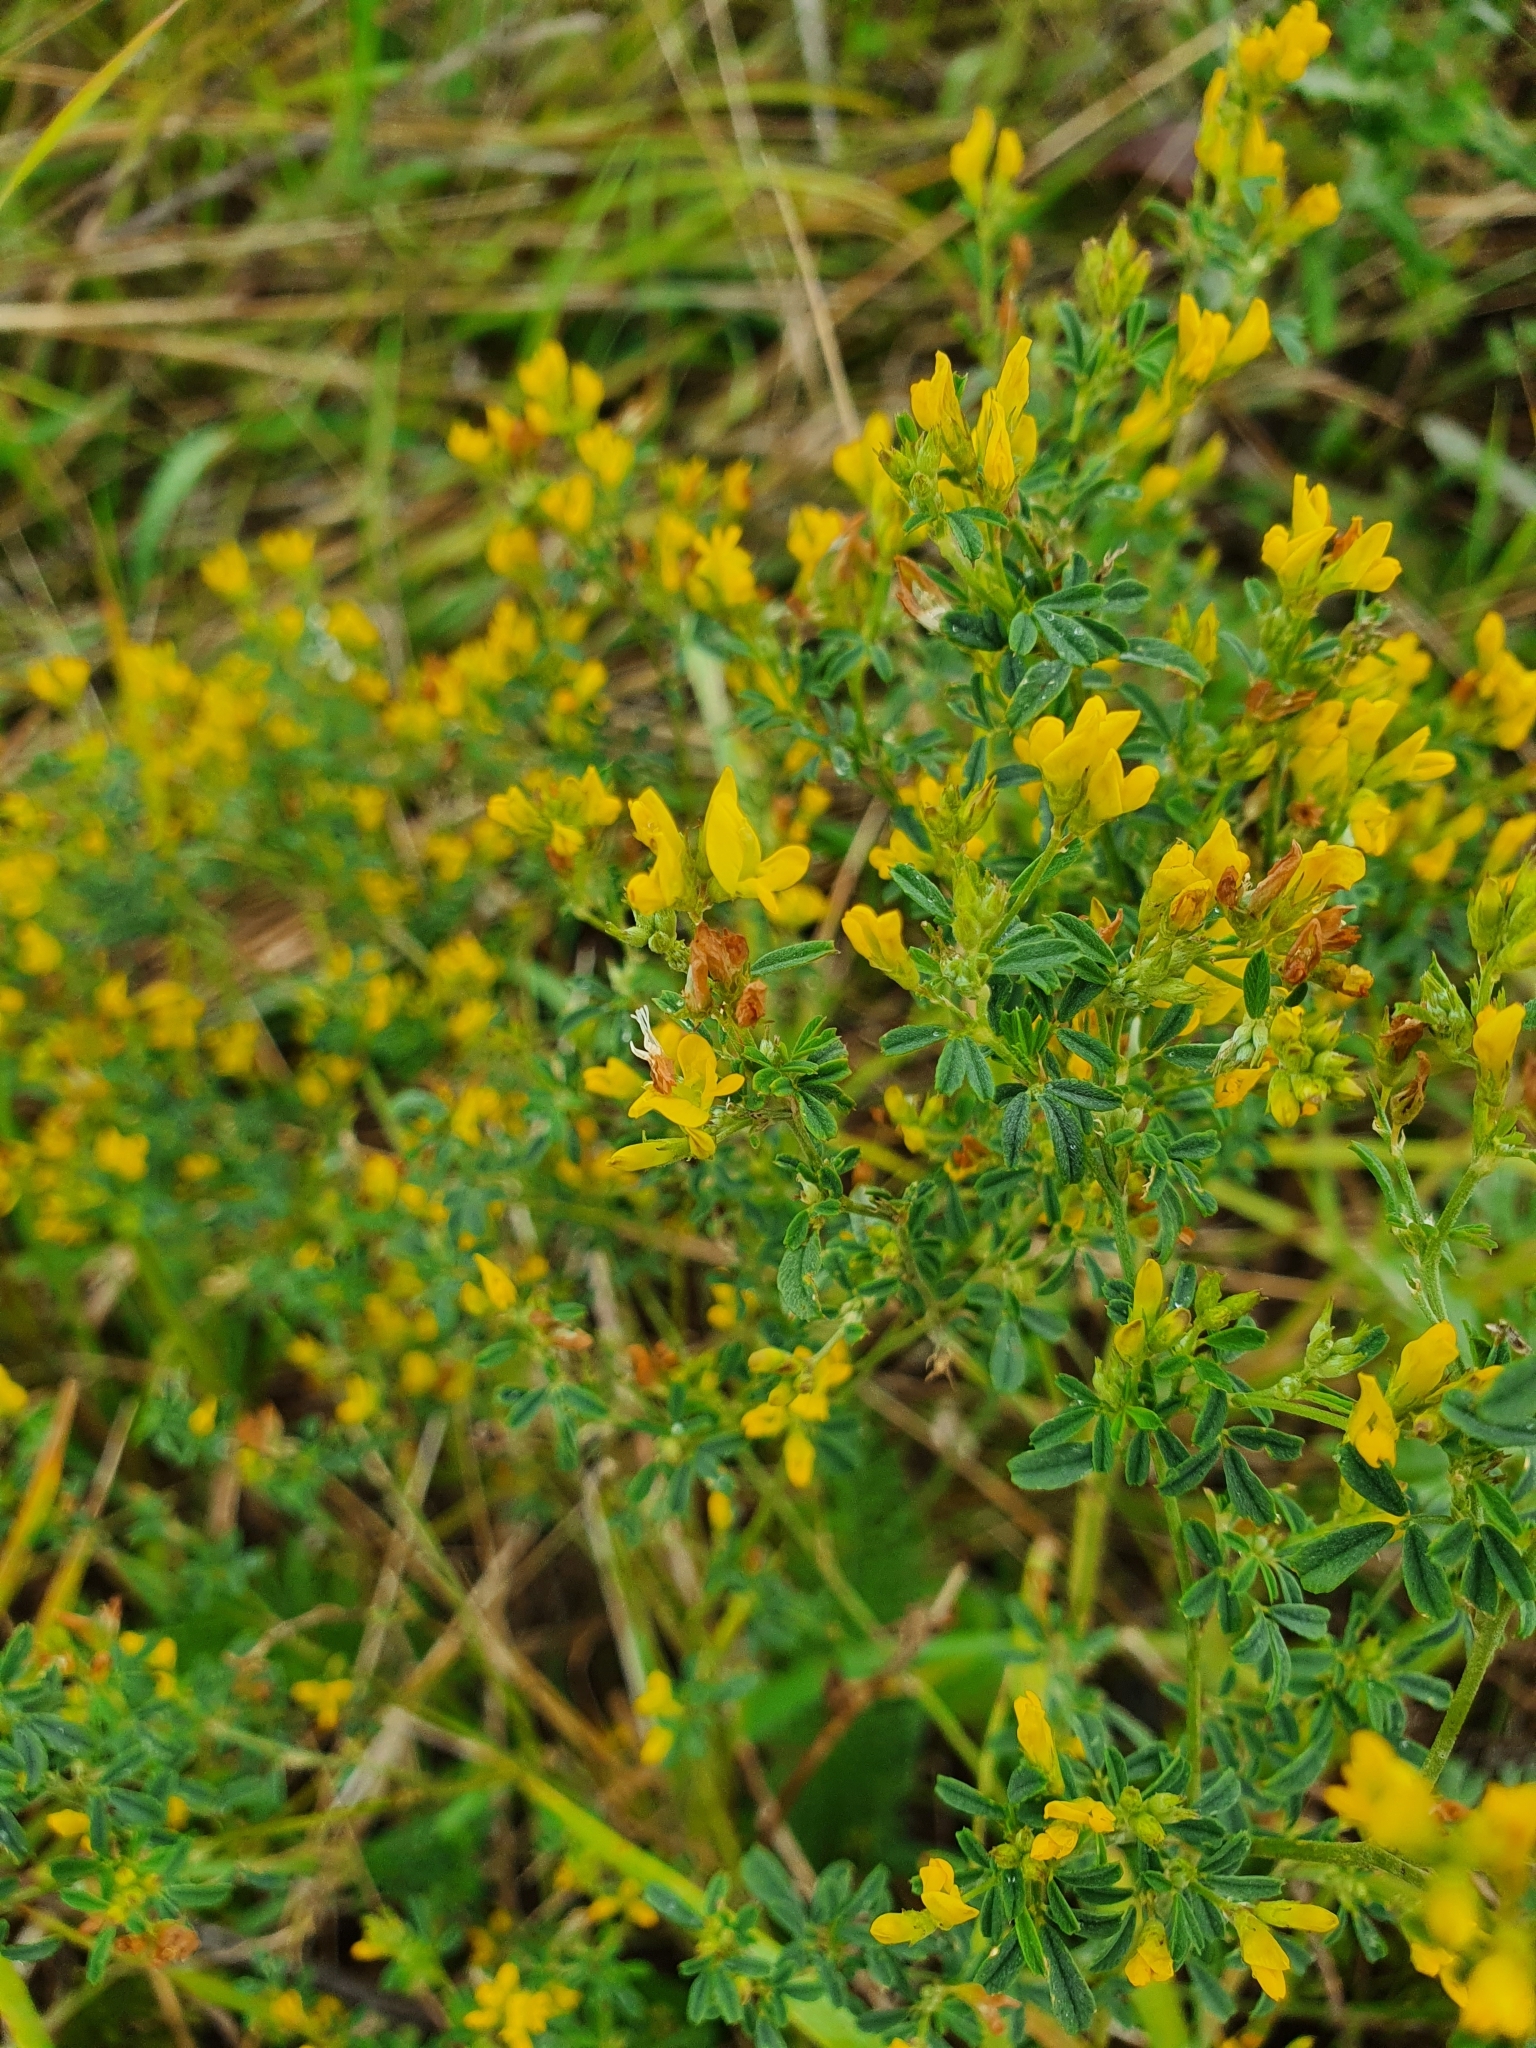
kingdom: Plantae
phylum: Tracheophyta
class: Magnoliopsida
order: Fabales
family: Fabaceae
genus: Medicago
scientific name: Medicago falcata
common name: Sickle medick
